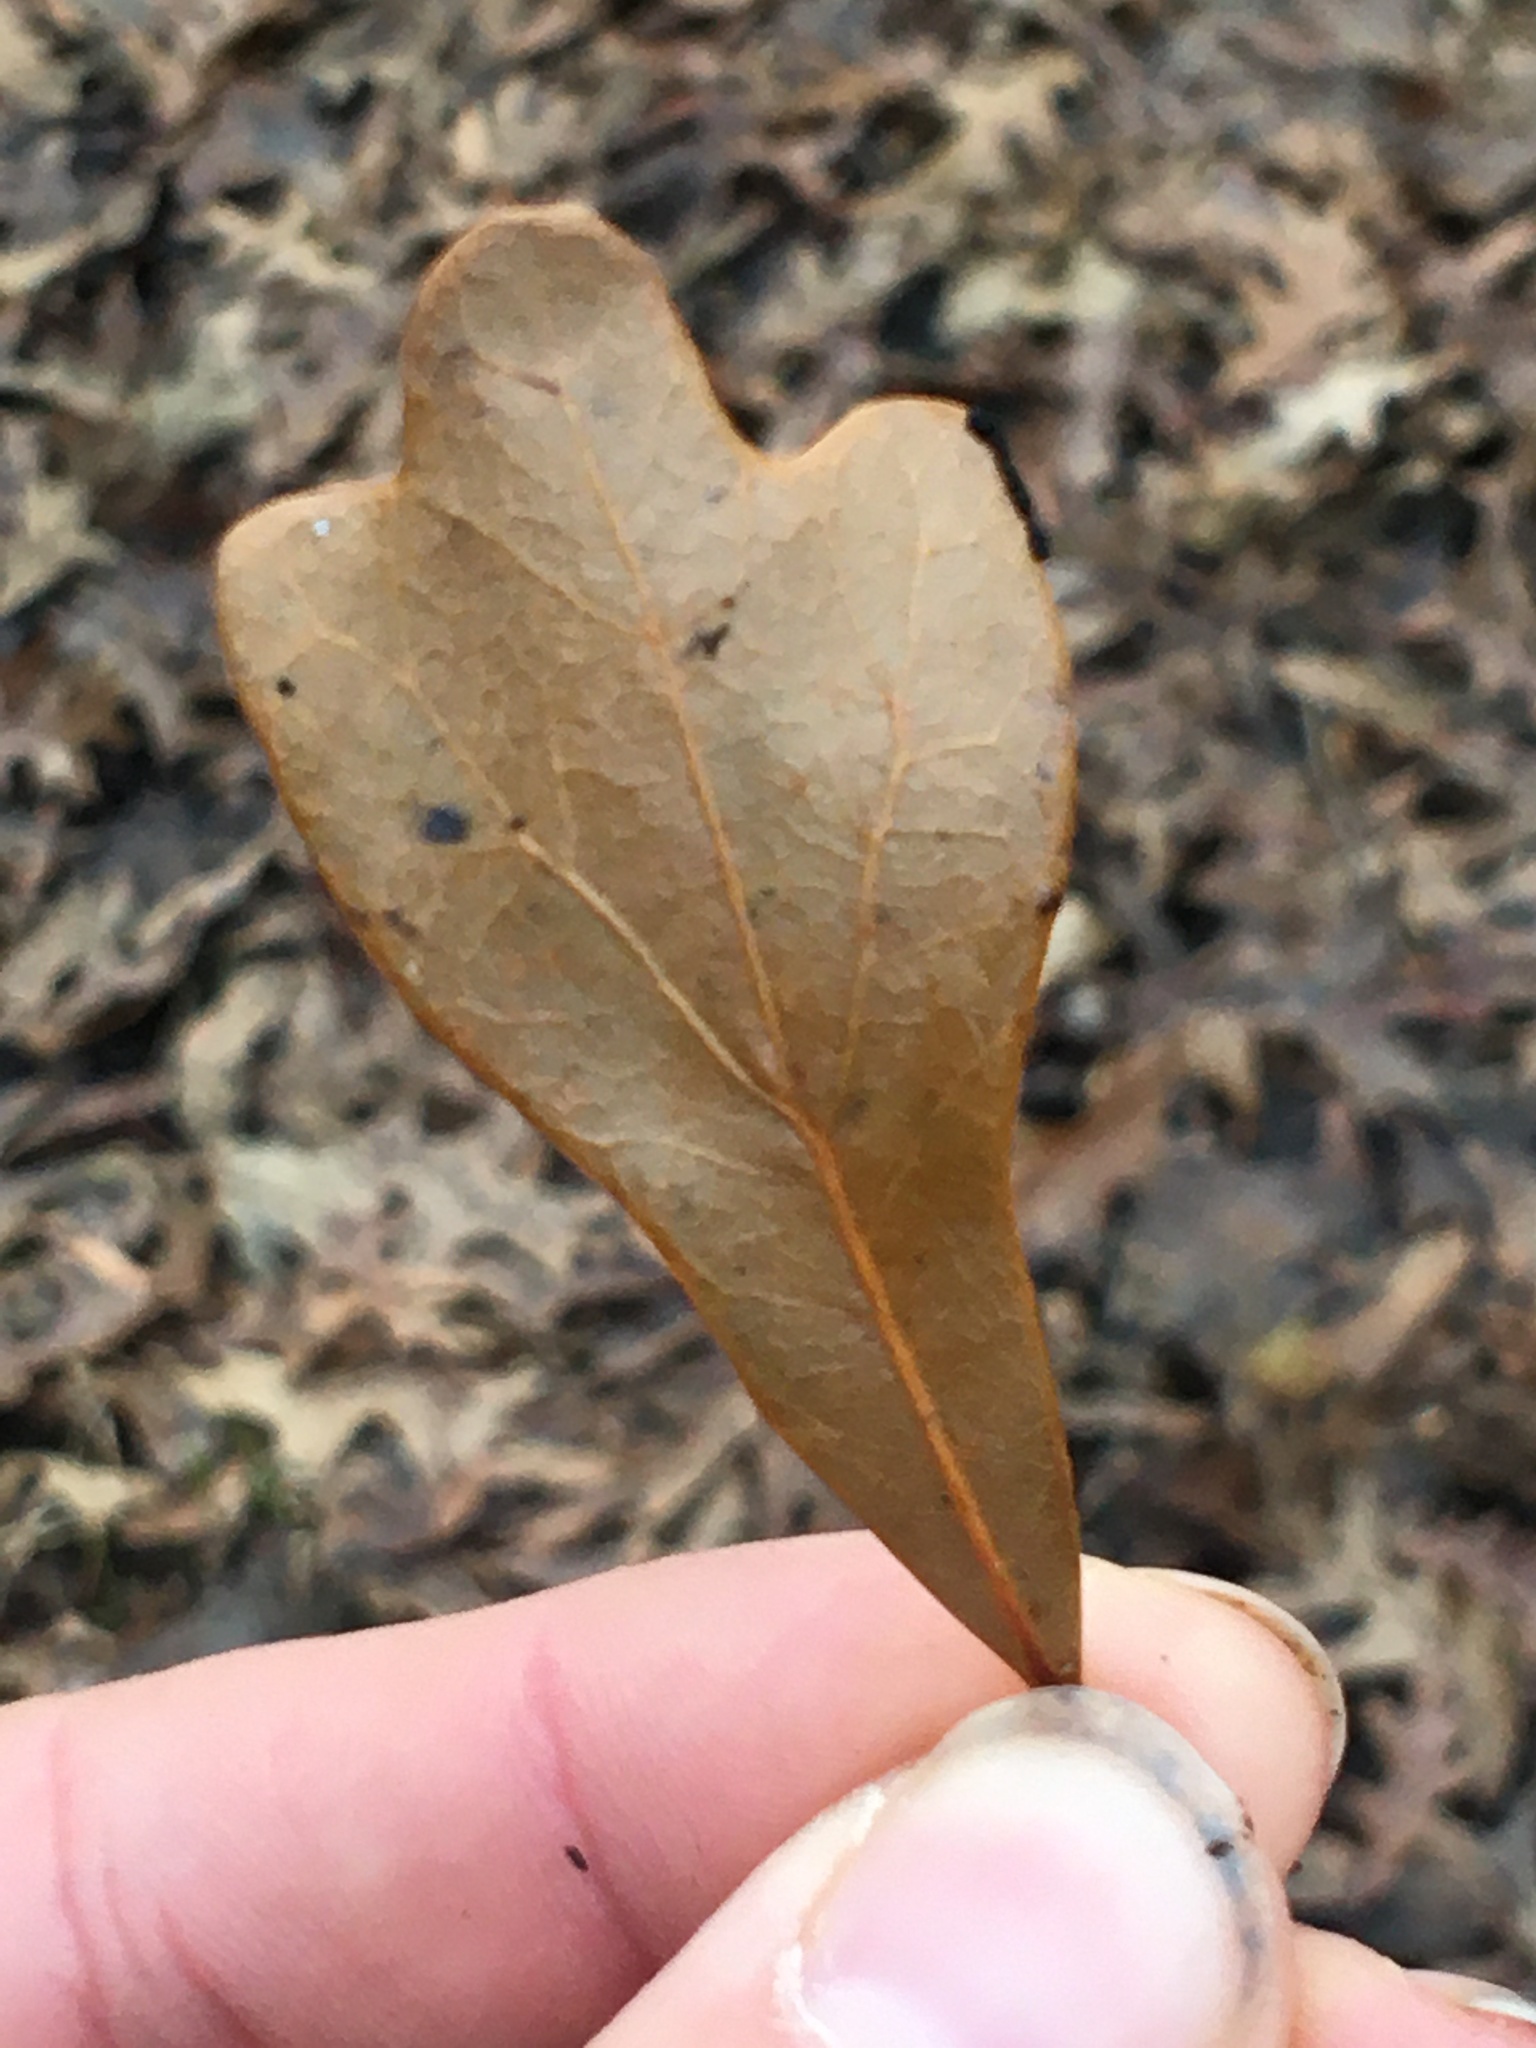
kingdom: Plantae
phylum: Tracheophyta
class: Magnoliopsida
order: Fagales
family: Fagaceae
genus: Quercus
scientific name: Quercus nigra
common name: Water oak
